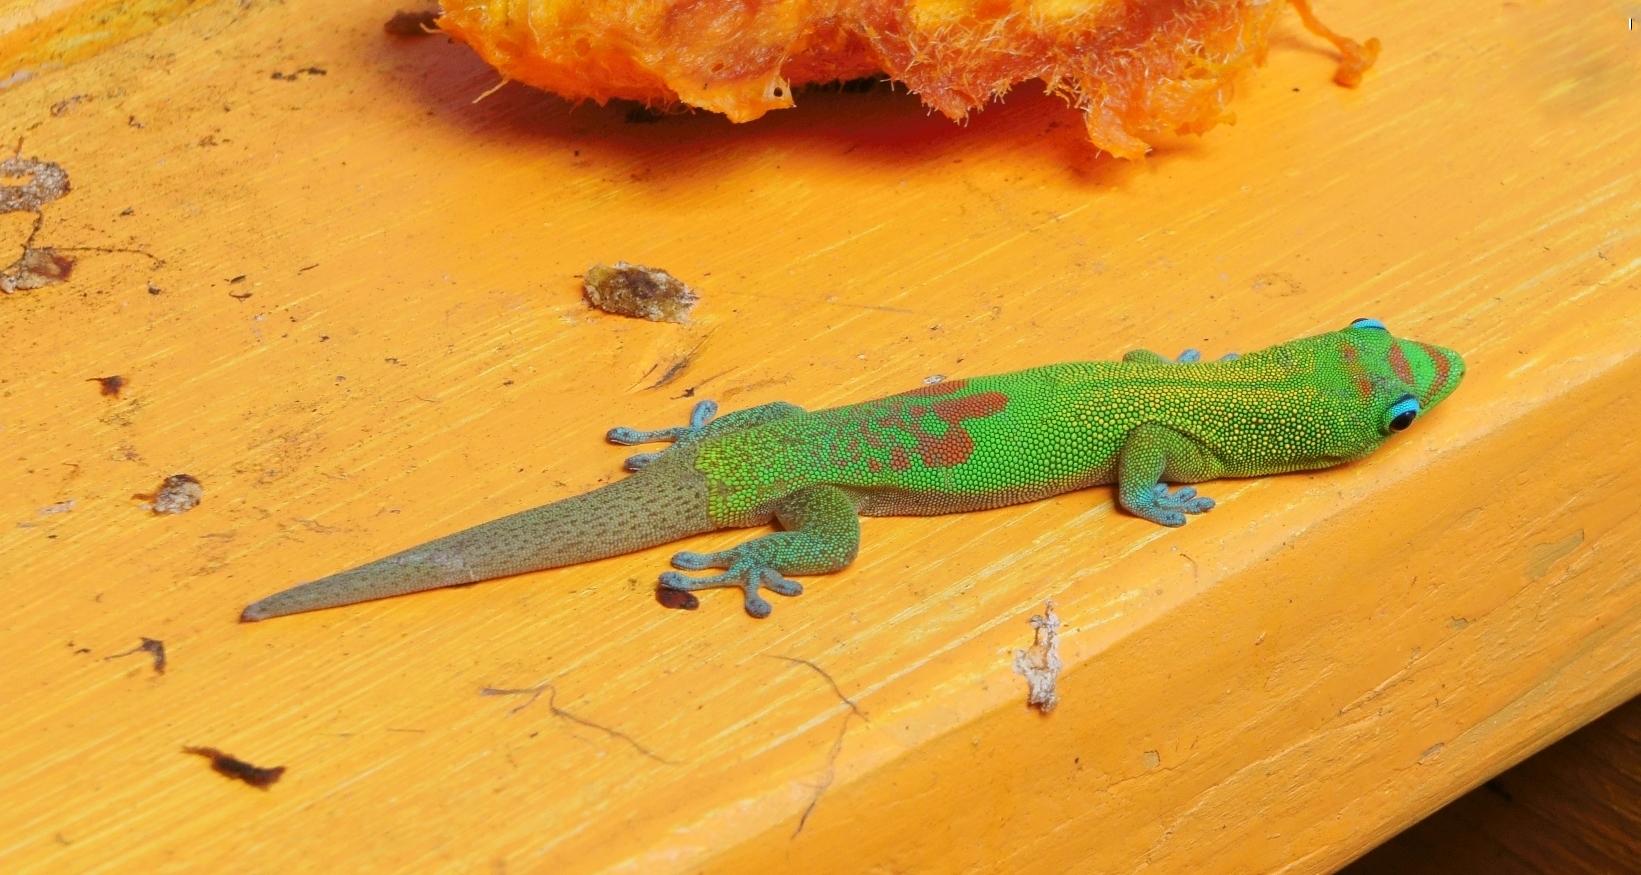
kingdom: Animalia
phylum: Chordata
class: Squamata
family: Gekkonidae
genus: Phelsuma
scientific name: Phelsuma laticauda
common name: Gold dust day gecko
